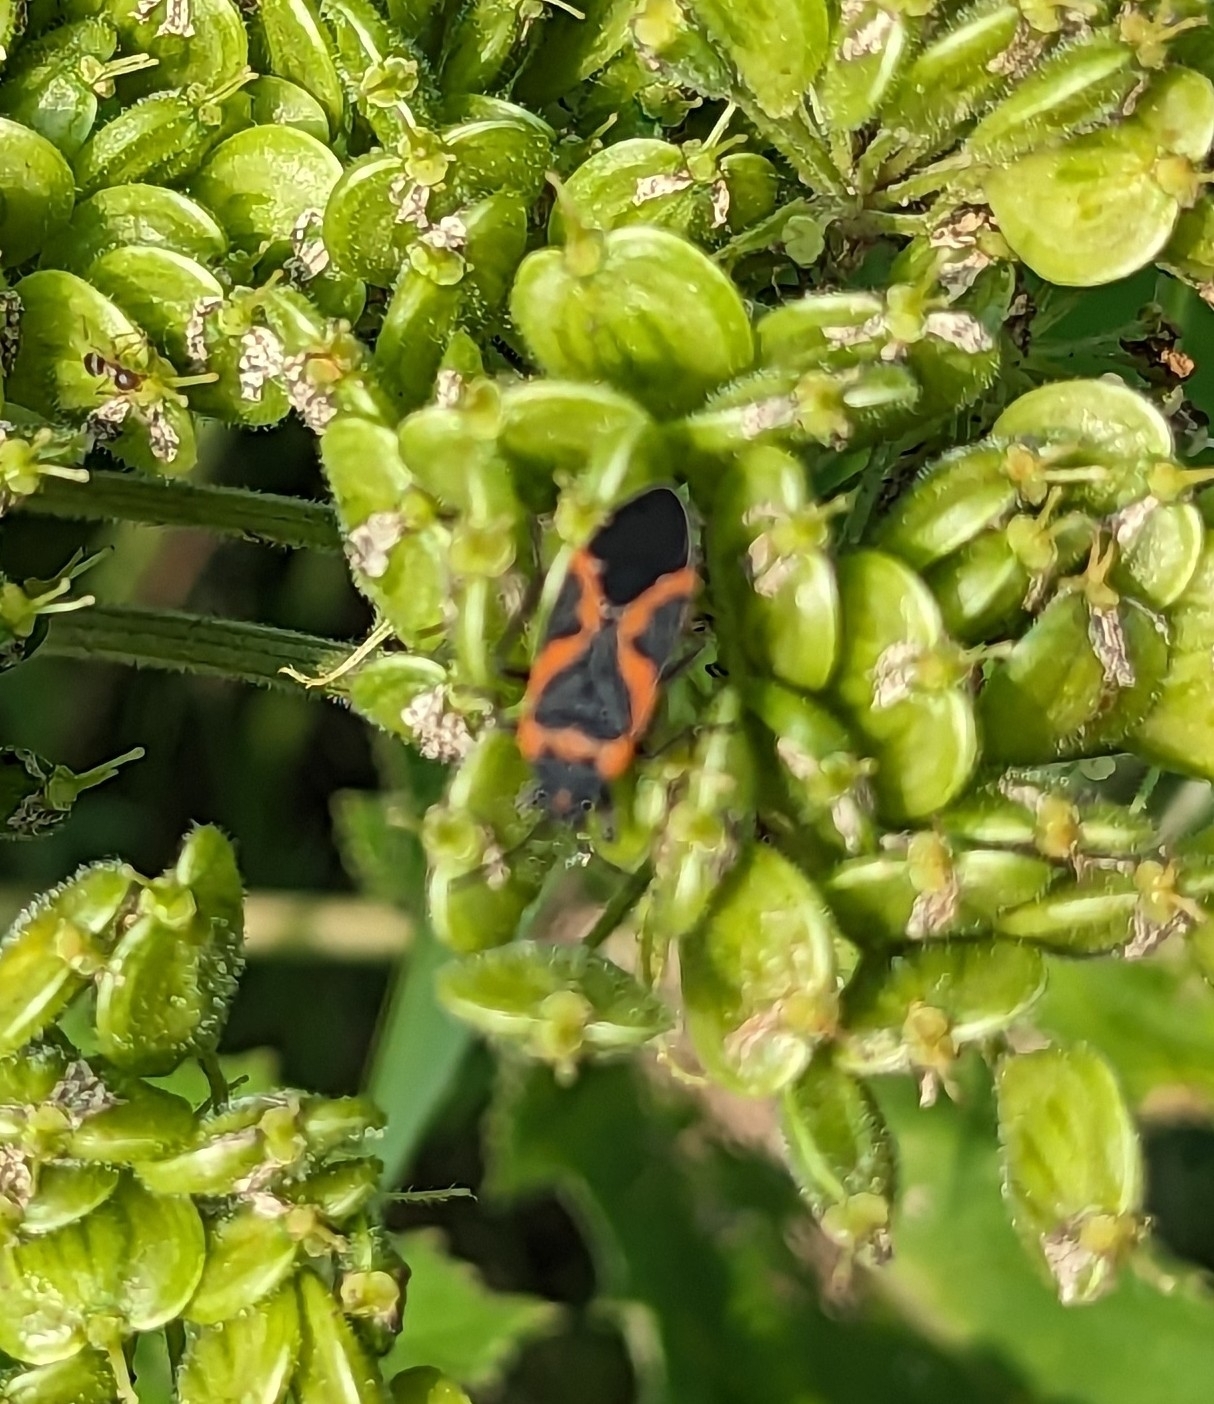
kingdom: Animalia
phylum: Arthropoda
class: Insecta
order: Hemiptera
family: Lygaeidae
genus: Lygaeus
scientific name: Lygaeus kalmii
